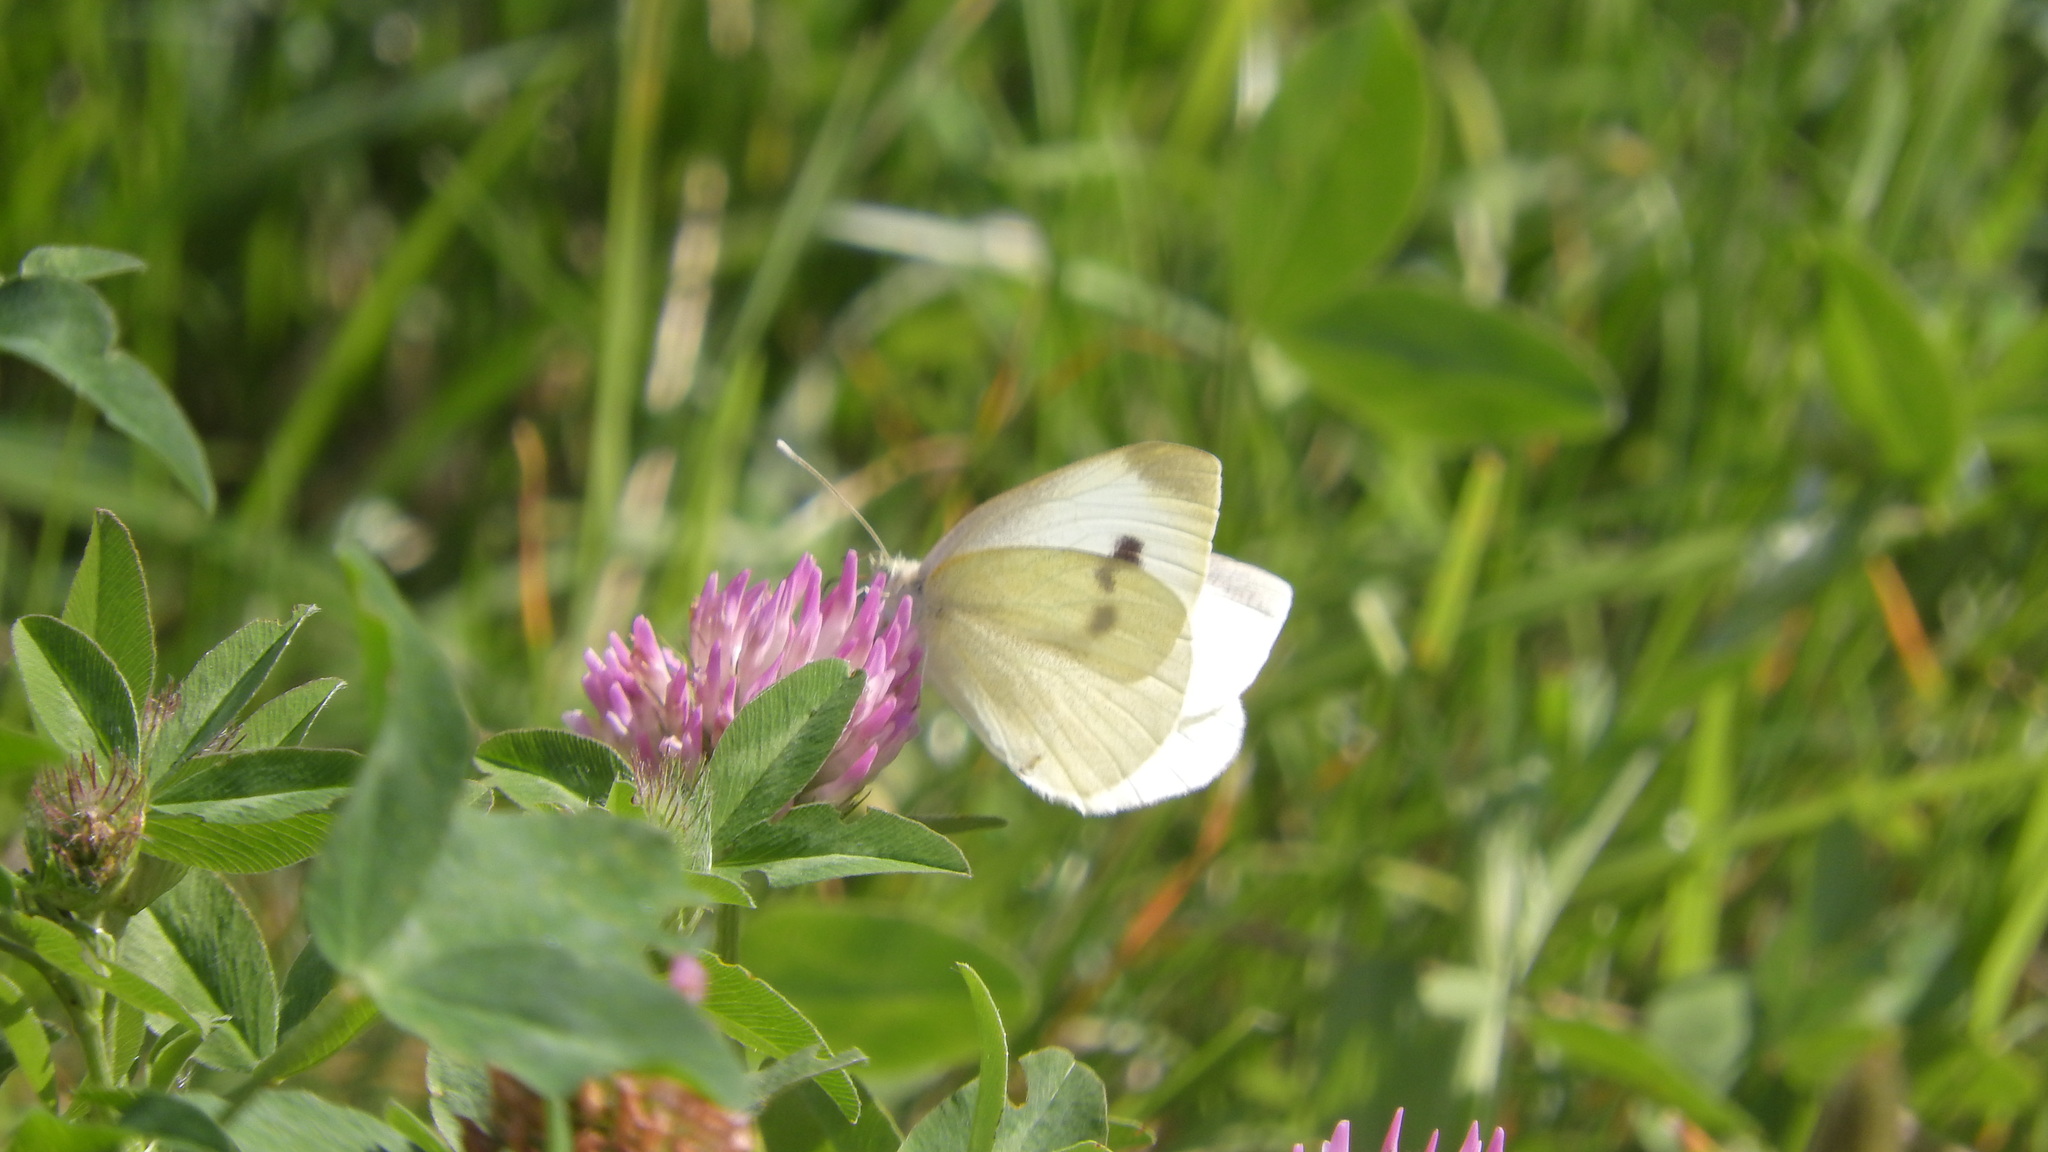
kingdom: Animalia
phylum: Arthropoda
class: Insecta
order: Lepidoptera
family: Pieridae
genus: Pieris
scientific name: Pieris rapae
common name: Small white
